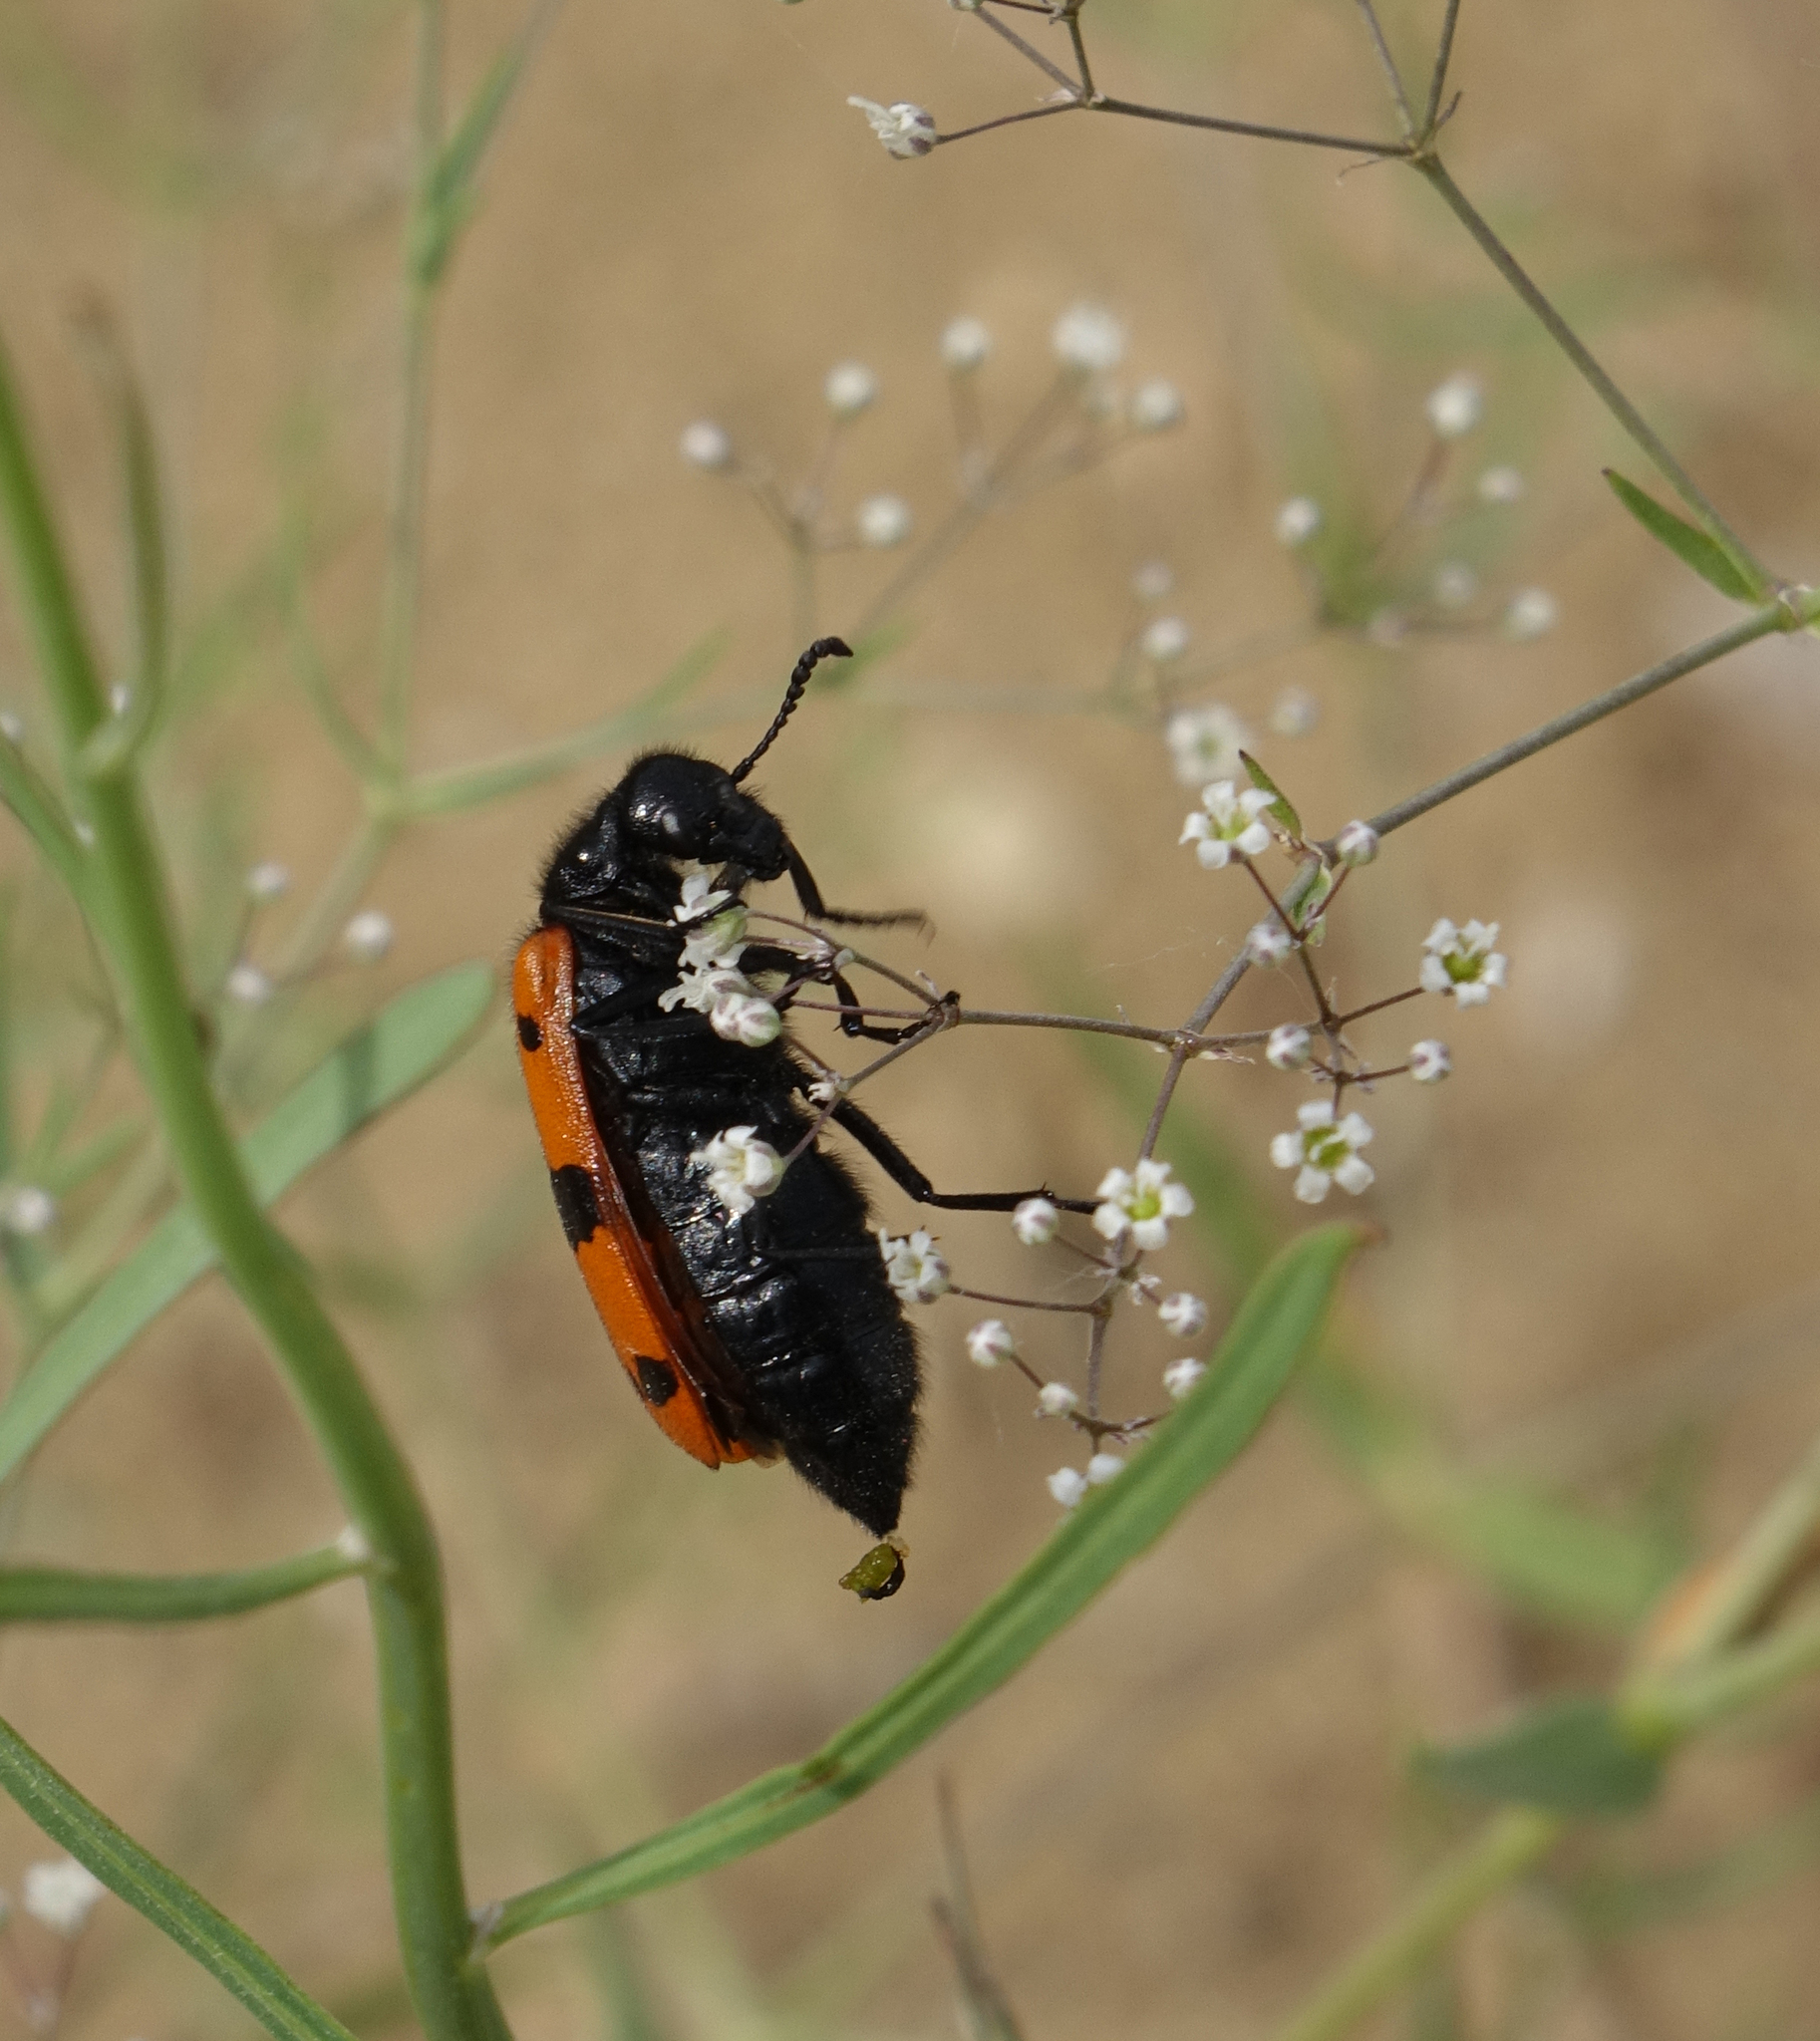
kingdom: Animalia
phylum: Arthropoda
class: Insecta
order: Coleoptera
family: Meloidae
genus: Mylabris
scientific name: Mylabris calida
